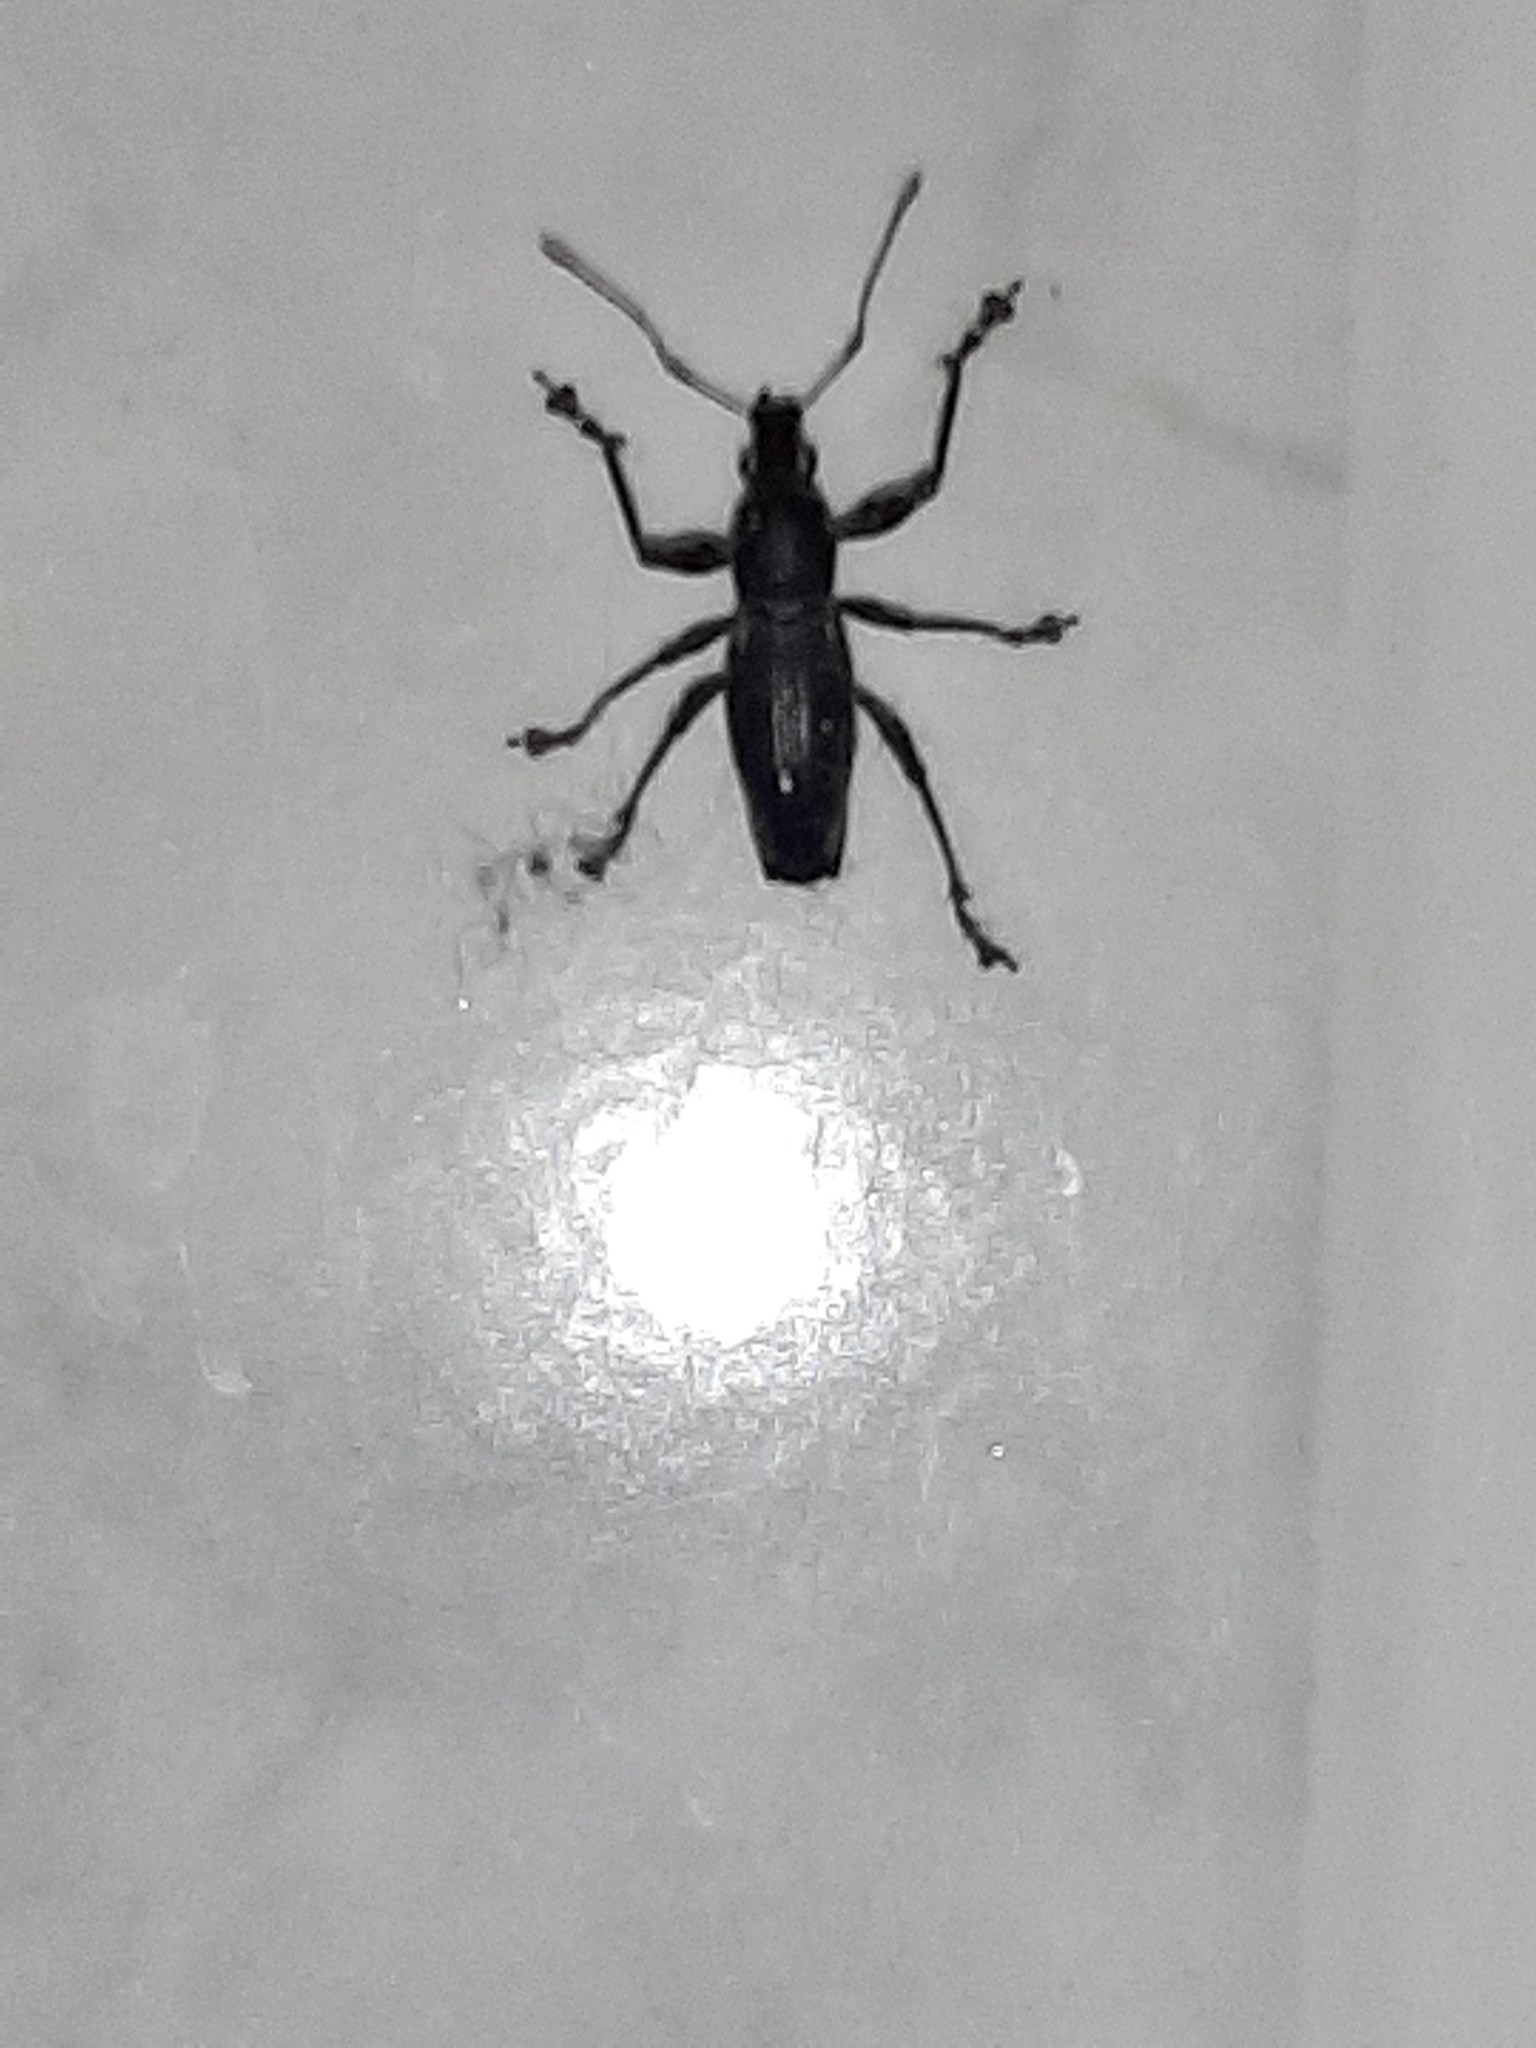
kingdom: Animalia
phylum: Arthropoda
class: Insecta
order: Coleoptera
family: Curculionidae
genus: Naupactus
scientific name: Naupactus xanthographus
